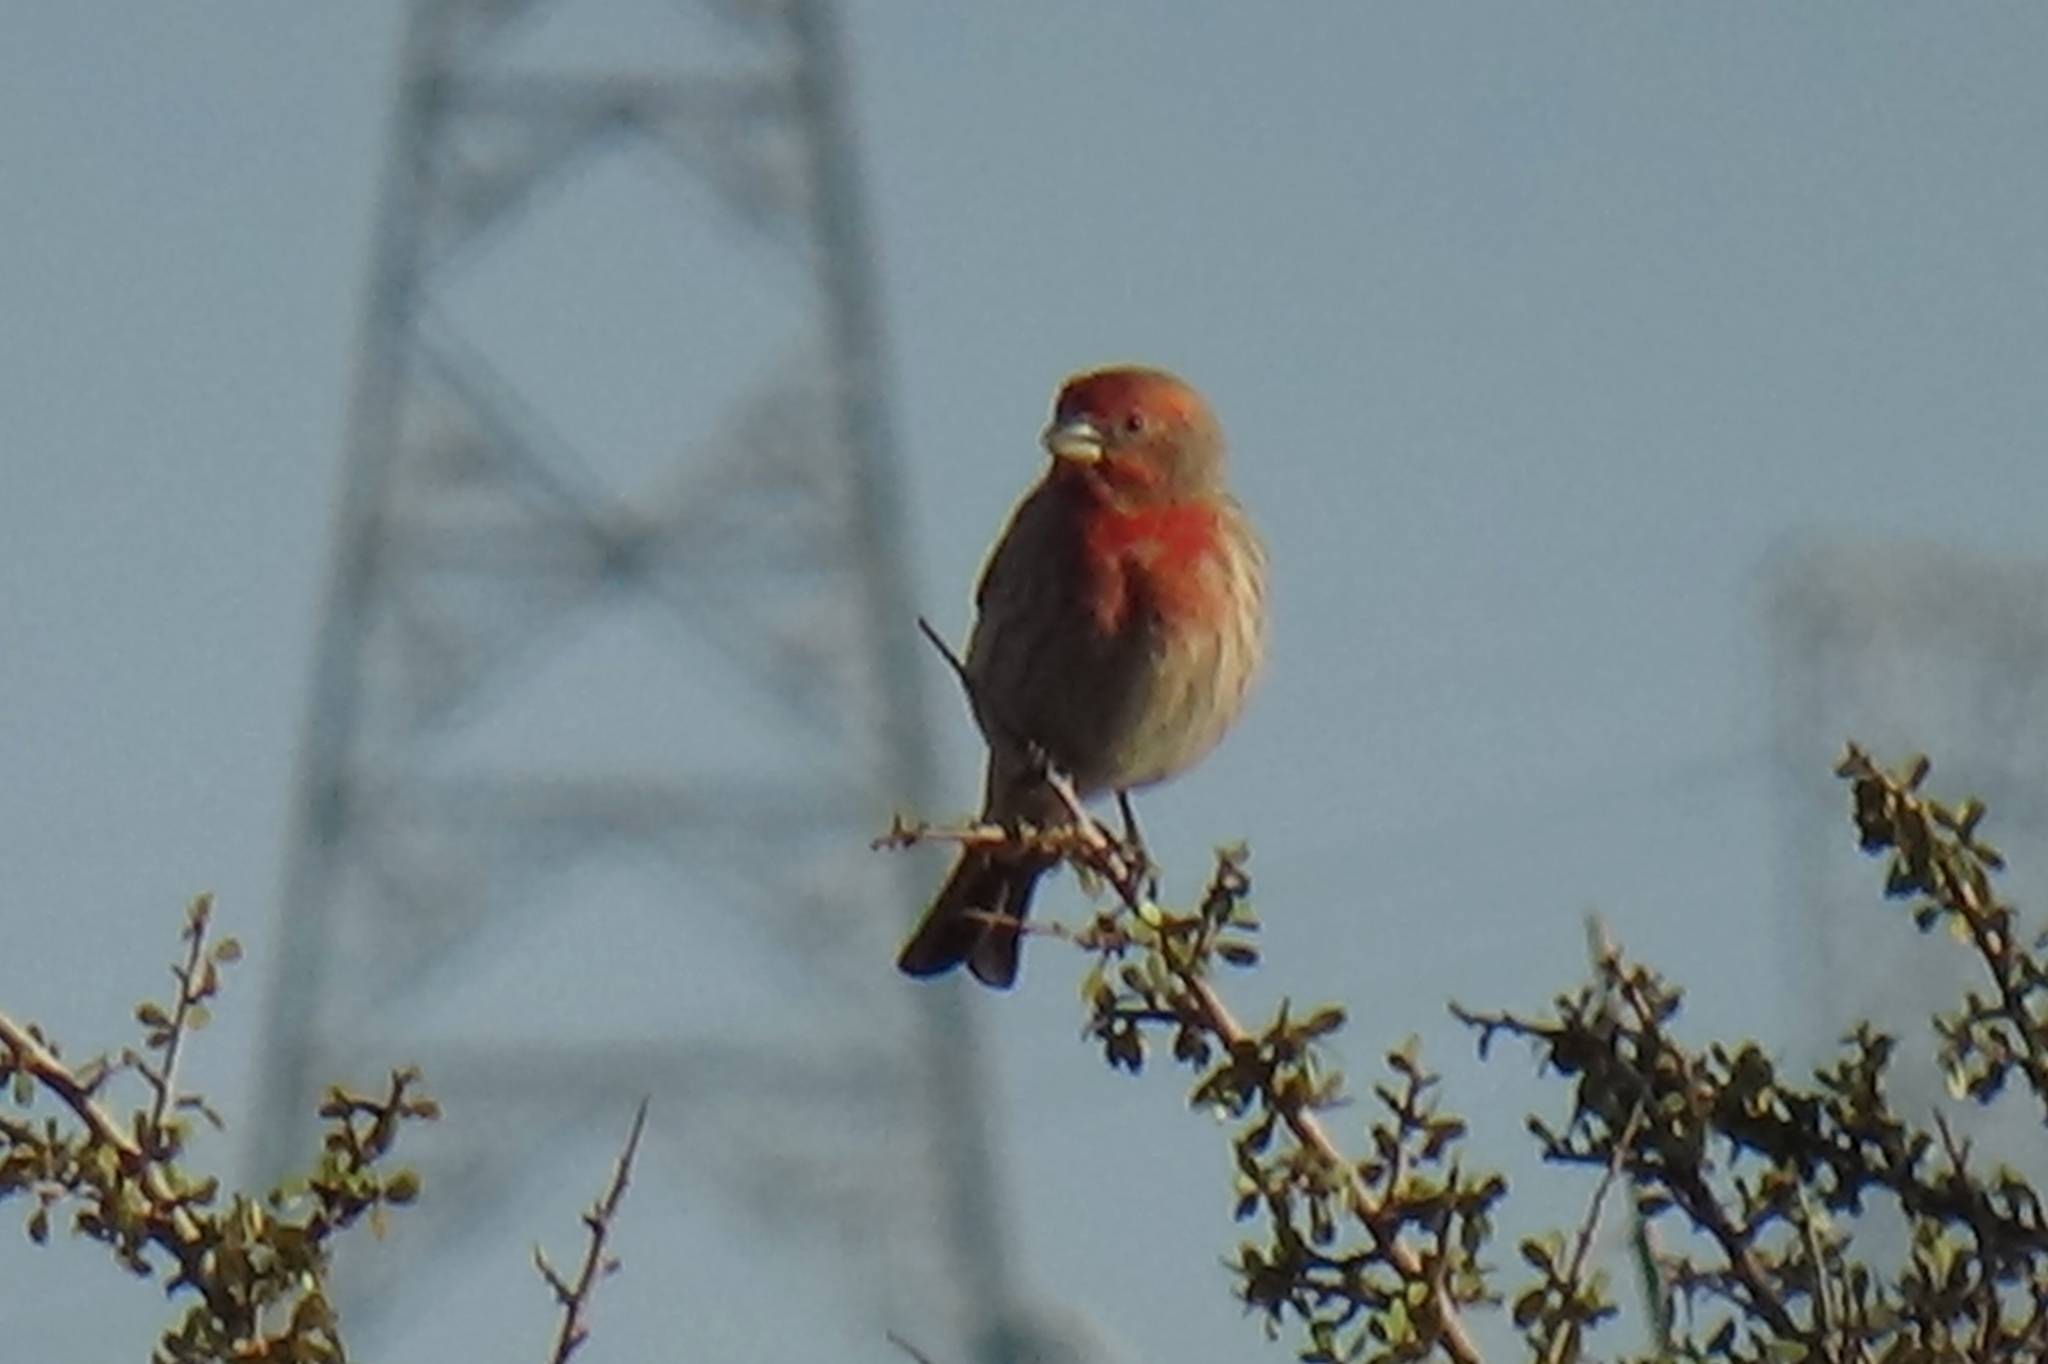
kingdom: Animalia
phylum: Chordata
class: Aves
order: Passeriformes
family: Fringillidae
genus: Haemorhous
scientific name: Haemorhous mexicanus
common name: House finch
